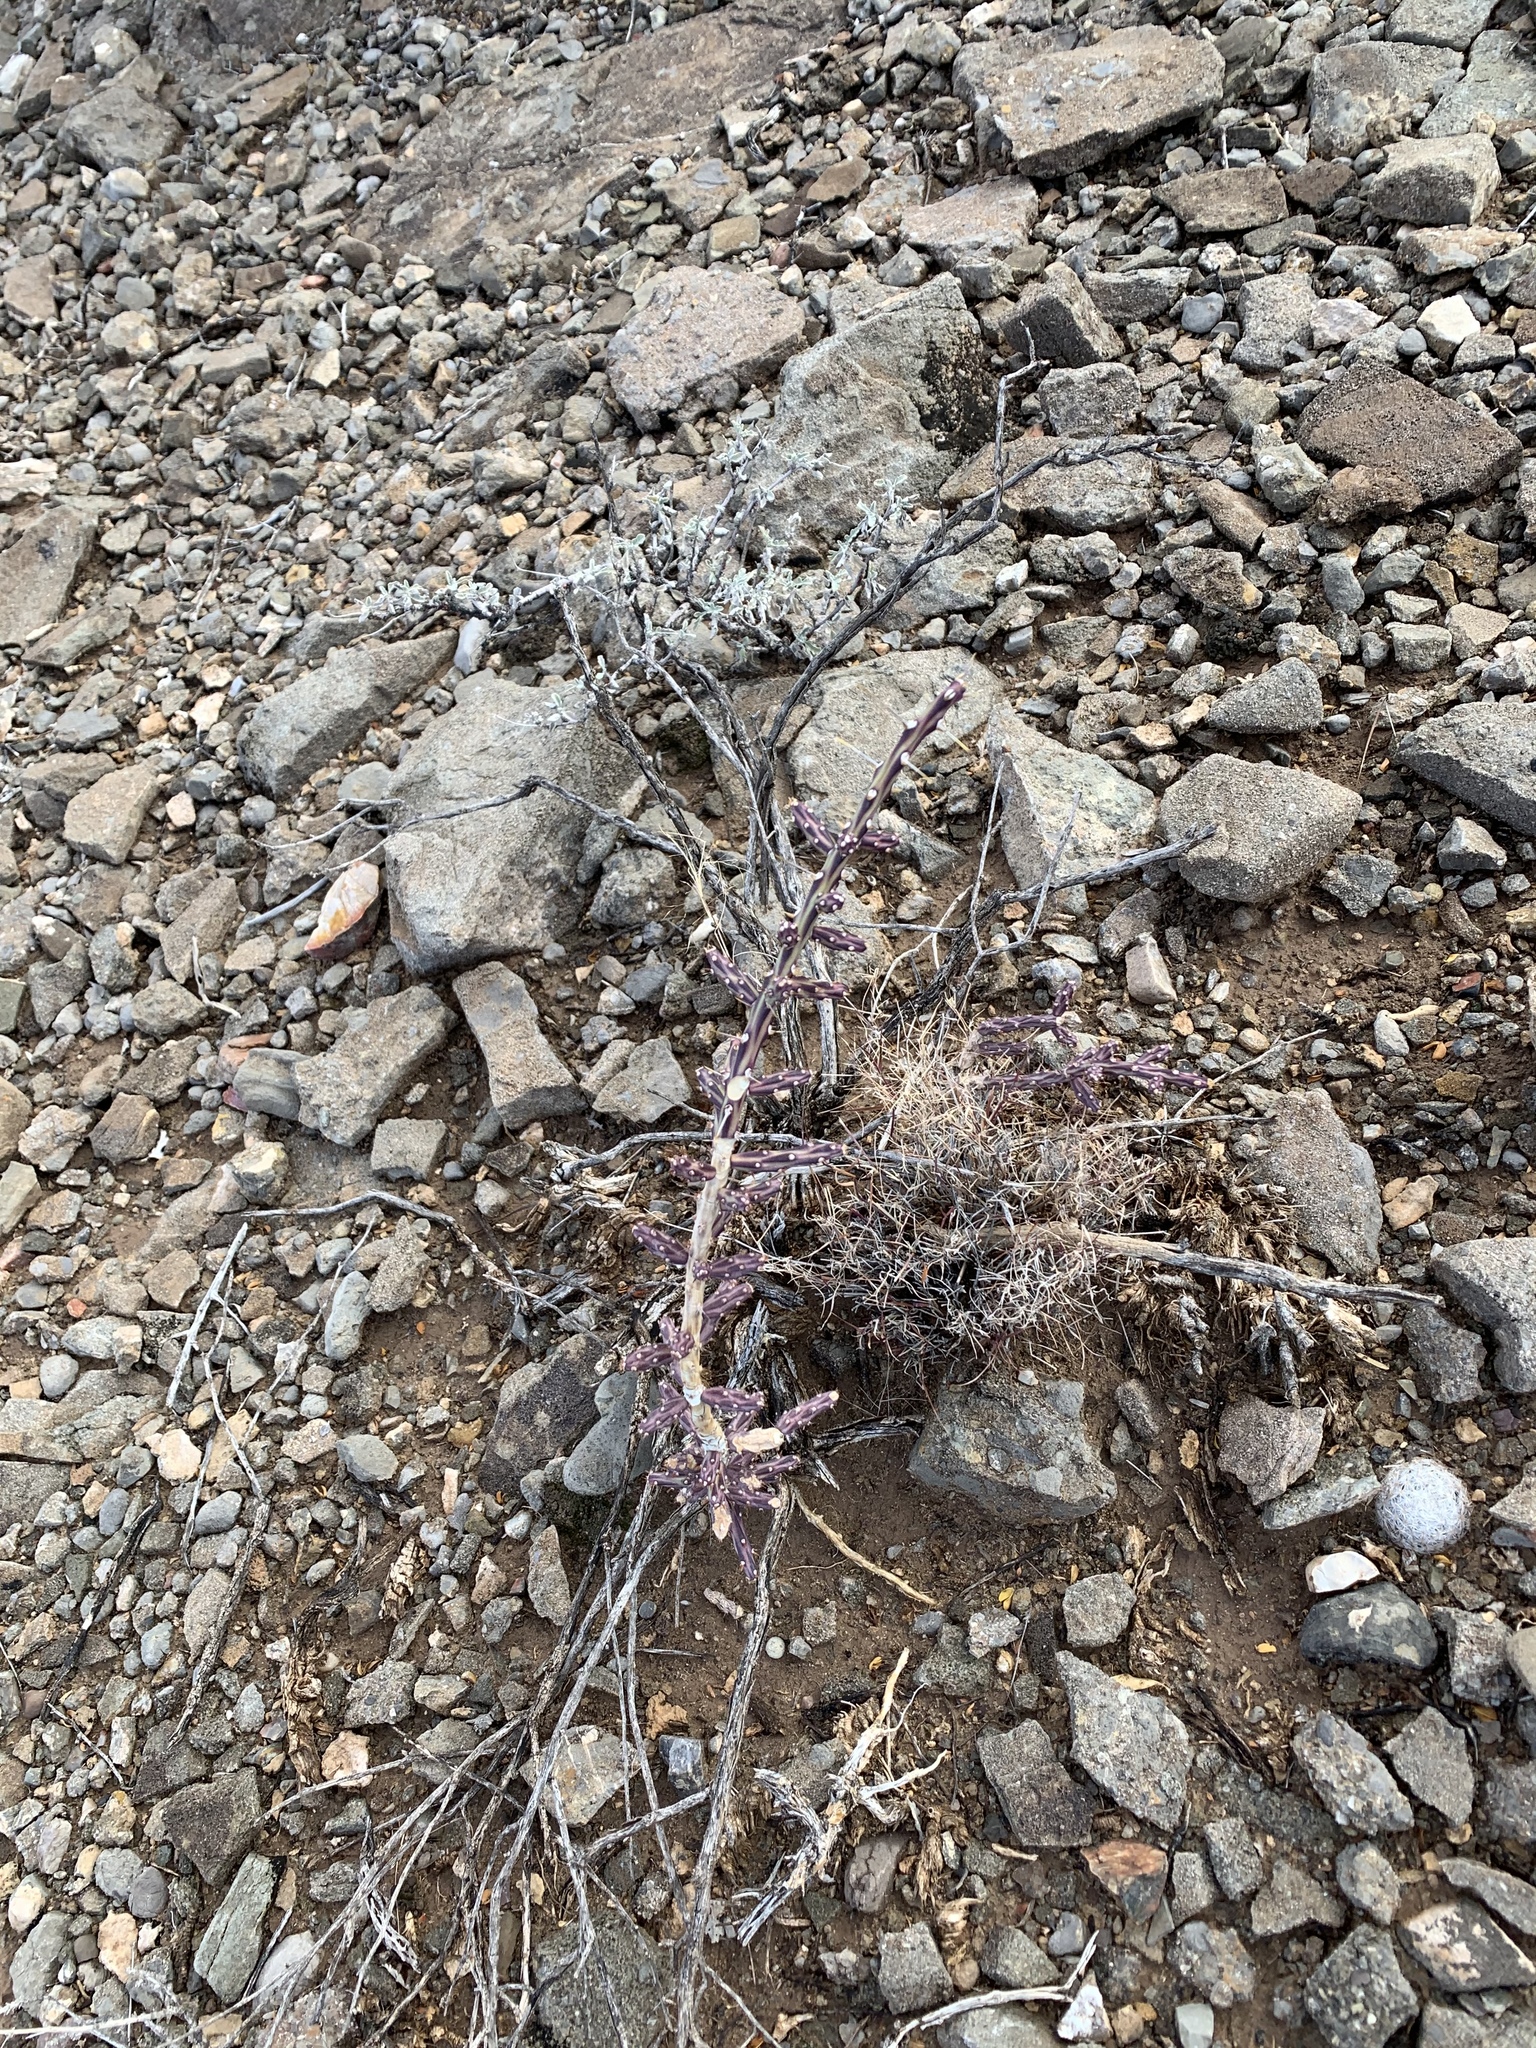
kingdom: Plantae
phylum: Tracheophyta
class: Magnoliopsida
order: Caryophyllales
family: Cactaceae
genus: Cylindropuntia
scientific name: Cylindropuntia leptocaulis
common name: Christmas cactus
